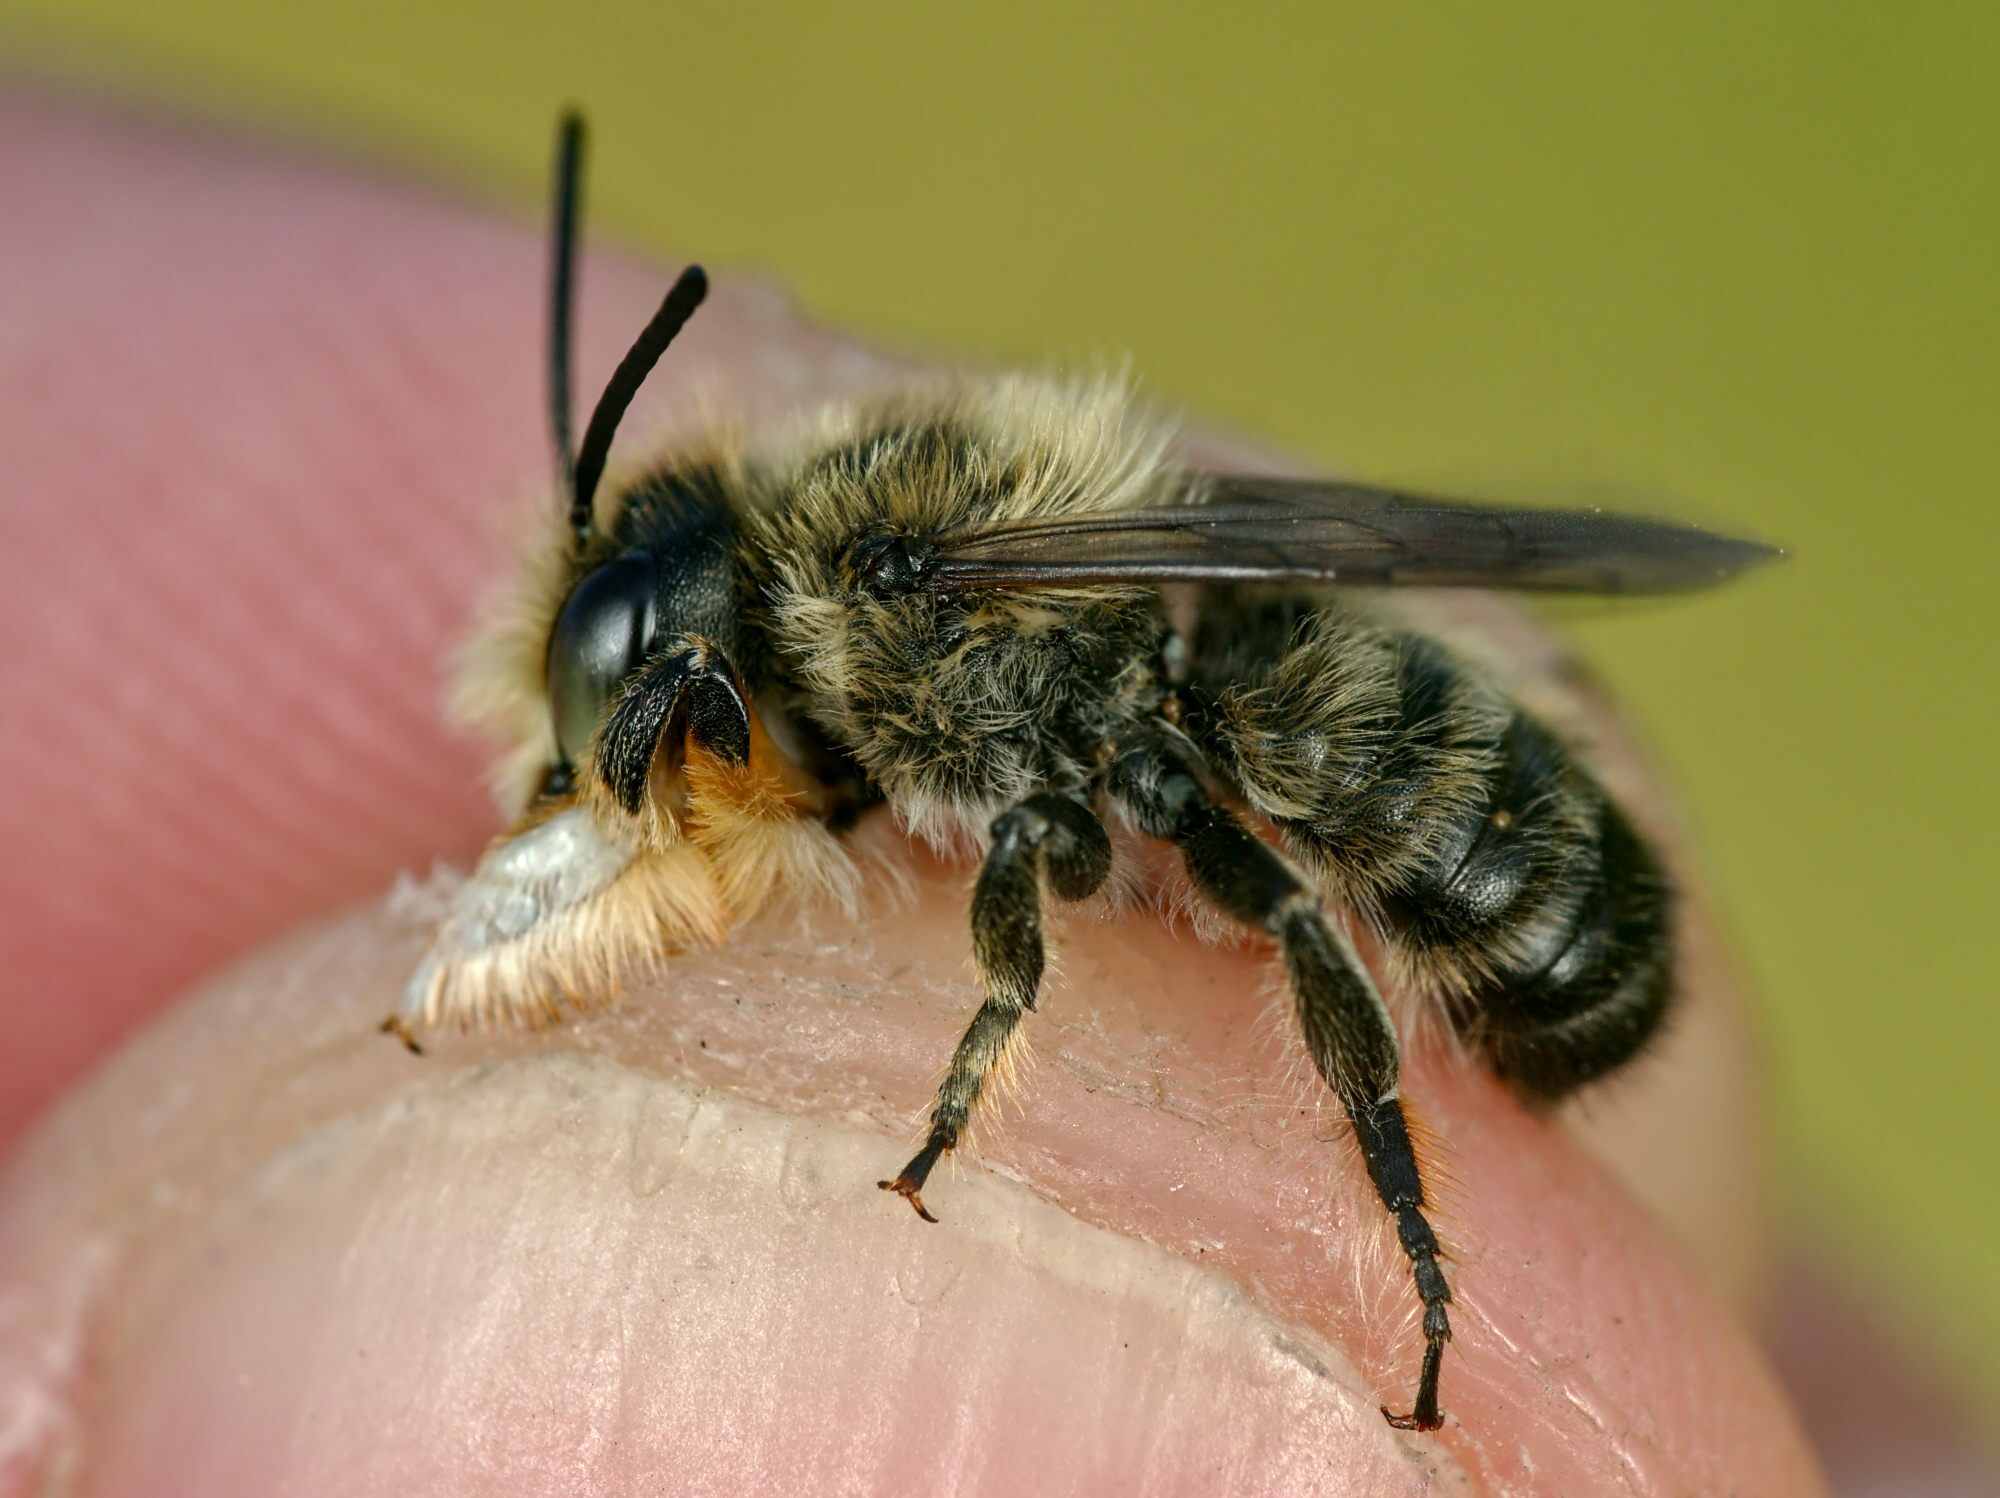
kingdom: Animalia
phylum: Arthropoda
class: Insecta
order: Hymenoptera
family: Megachilidae
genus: Megachile
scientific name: Megachile willughbiella
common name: Willughby's leafcutter bee
